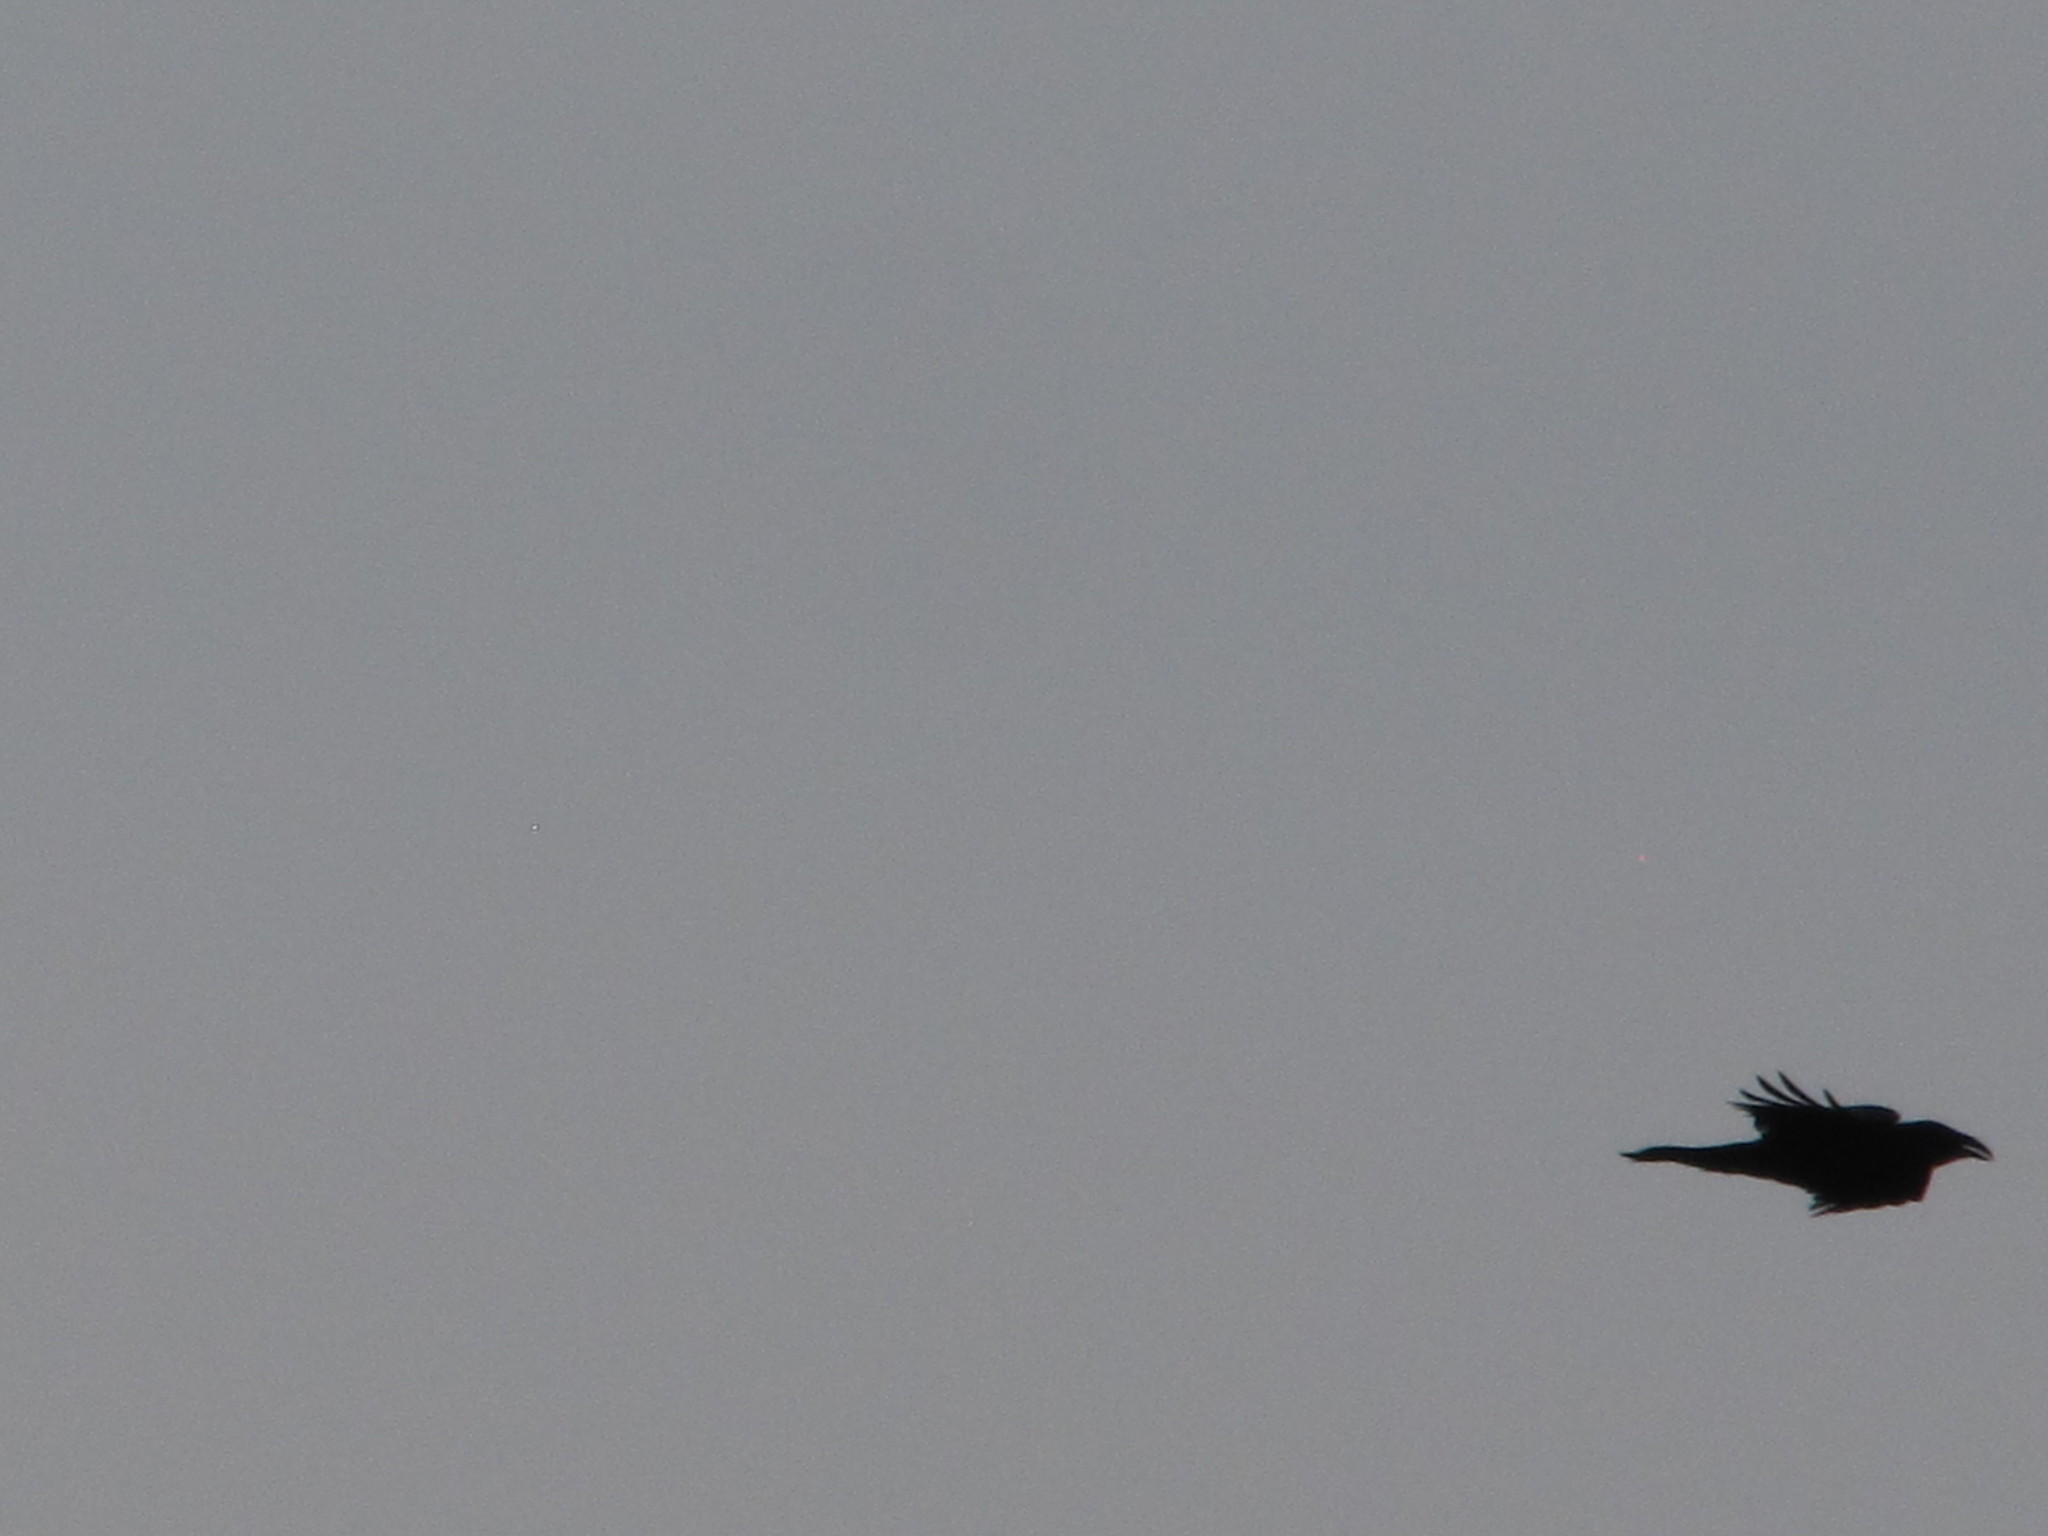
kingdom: Animalia
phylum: Chordata
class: Aves
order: Passeriformes
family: Corvidae
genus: Corvus
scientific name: Corvus corax
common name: Common raven
